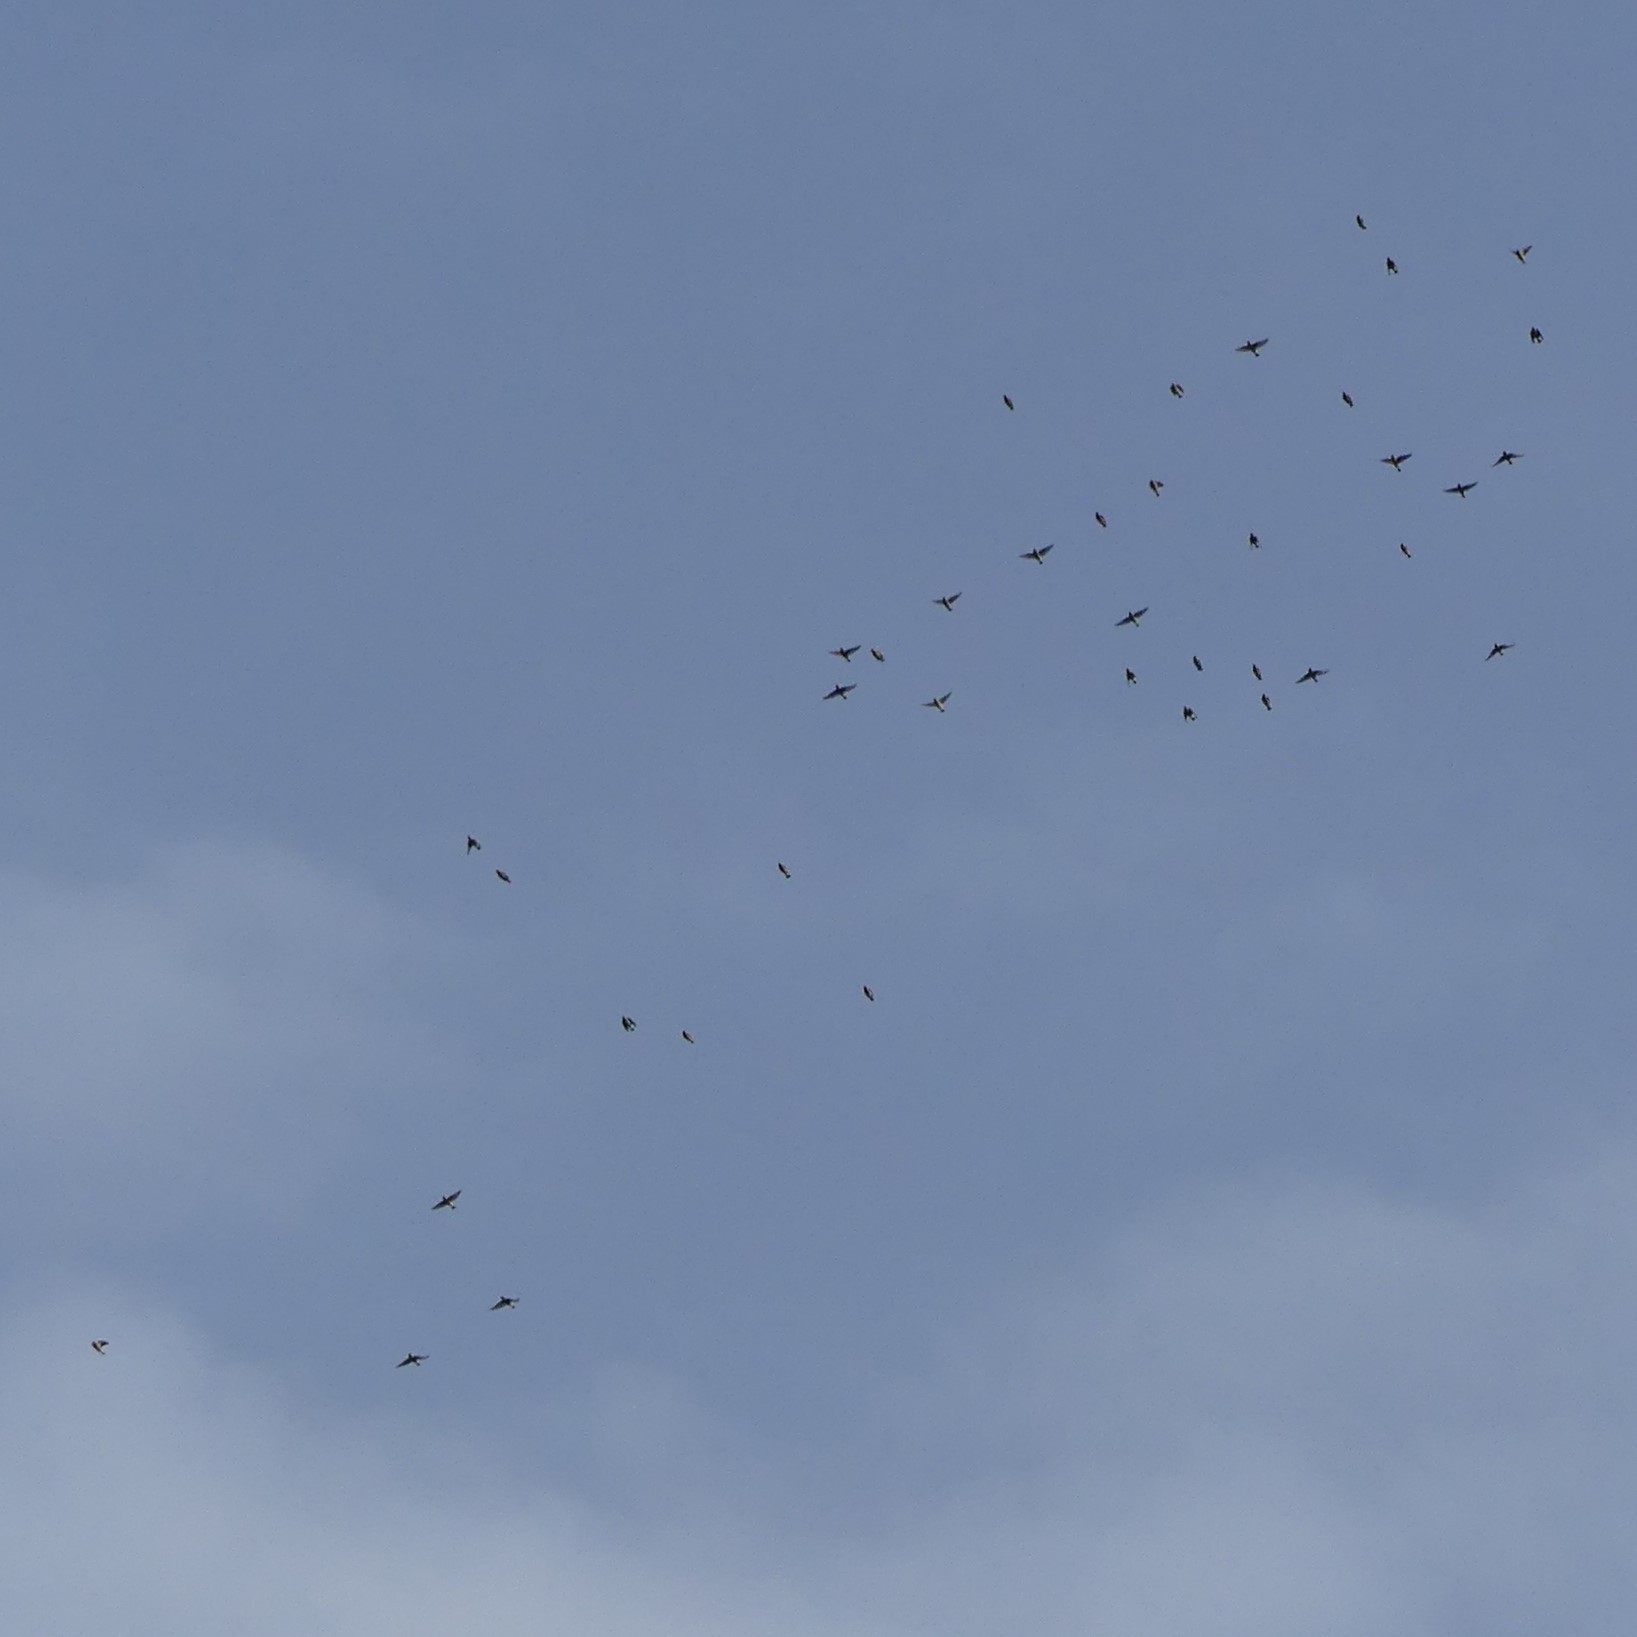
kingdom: Animalia
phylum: Chordata
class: Aves
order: Passeriformes
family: Bombycillidae
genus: Bombycilla
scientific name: Bombycilla cedrorum
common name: Cedar waxwing
